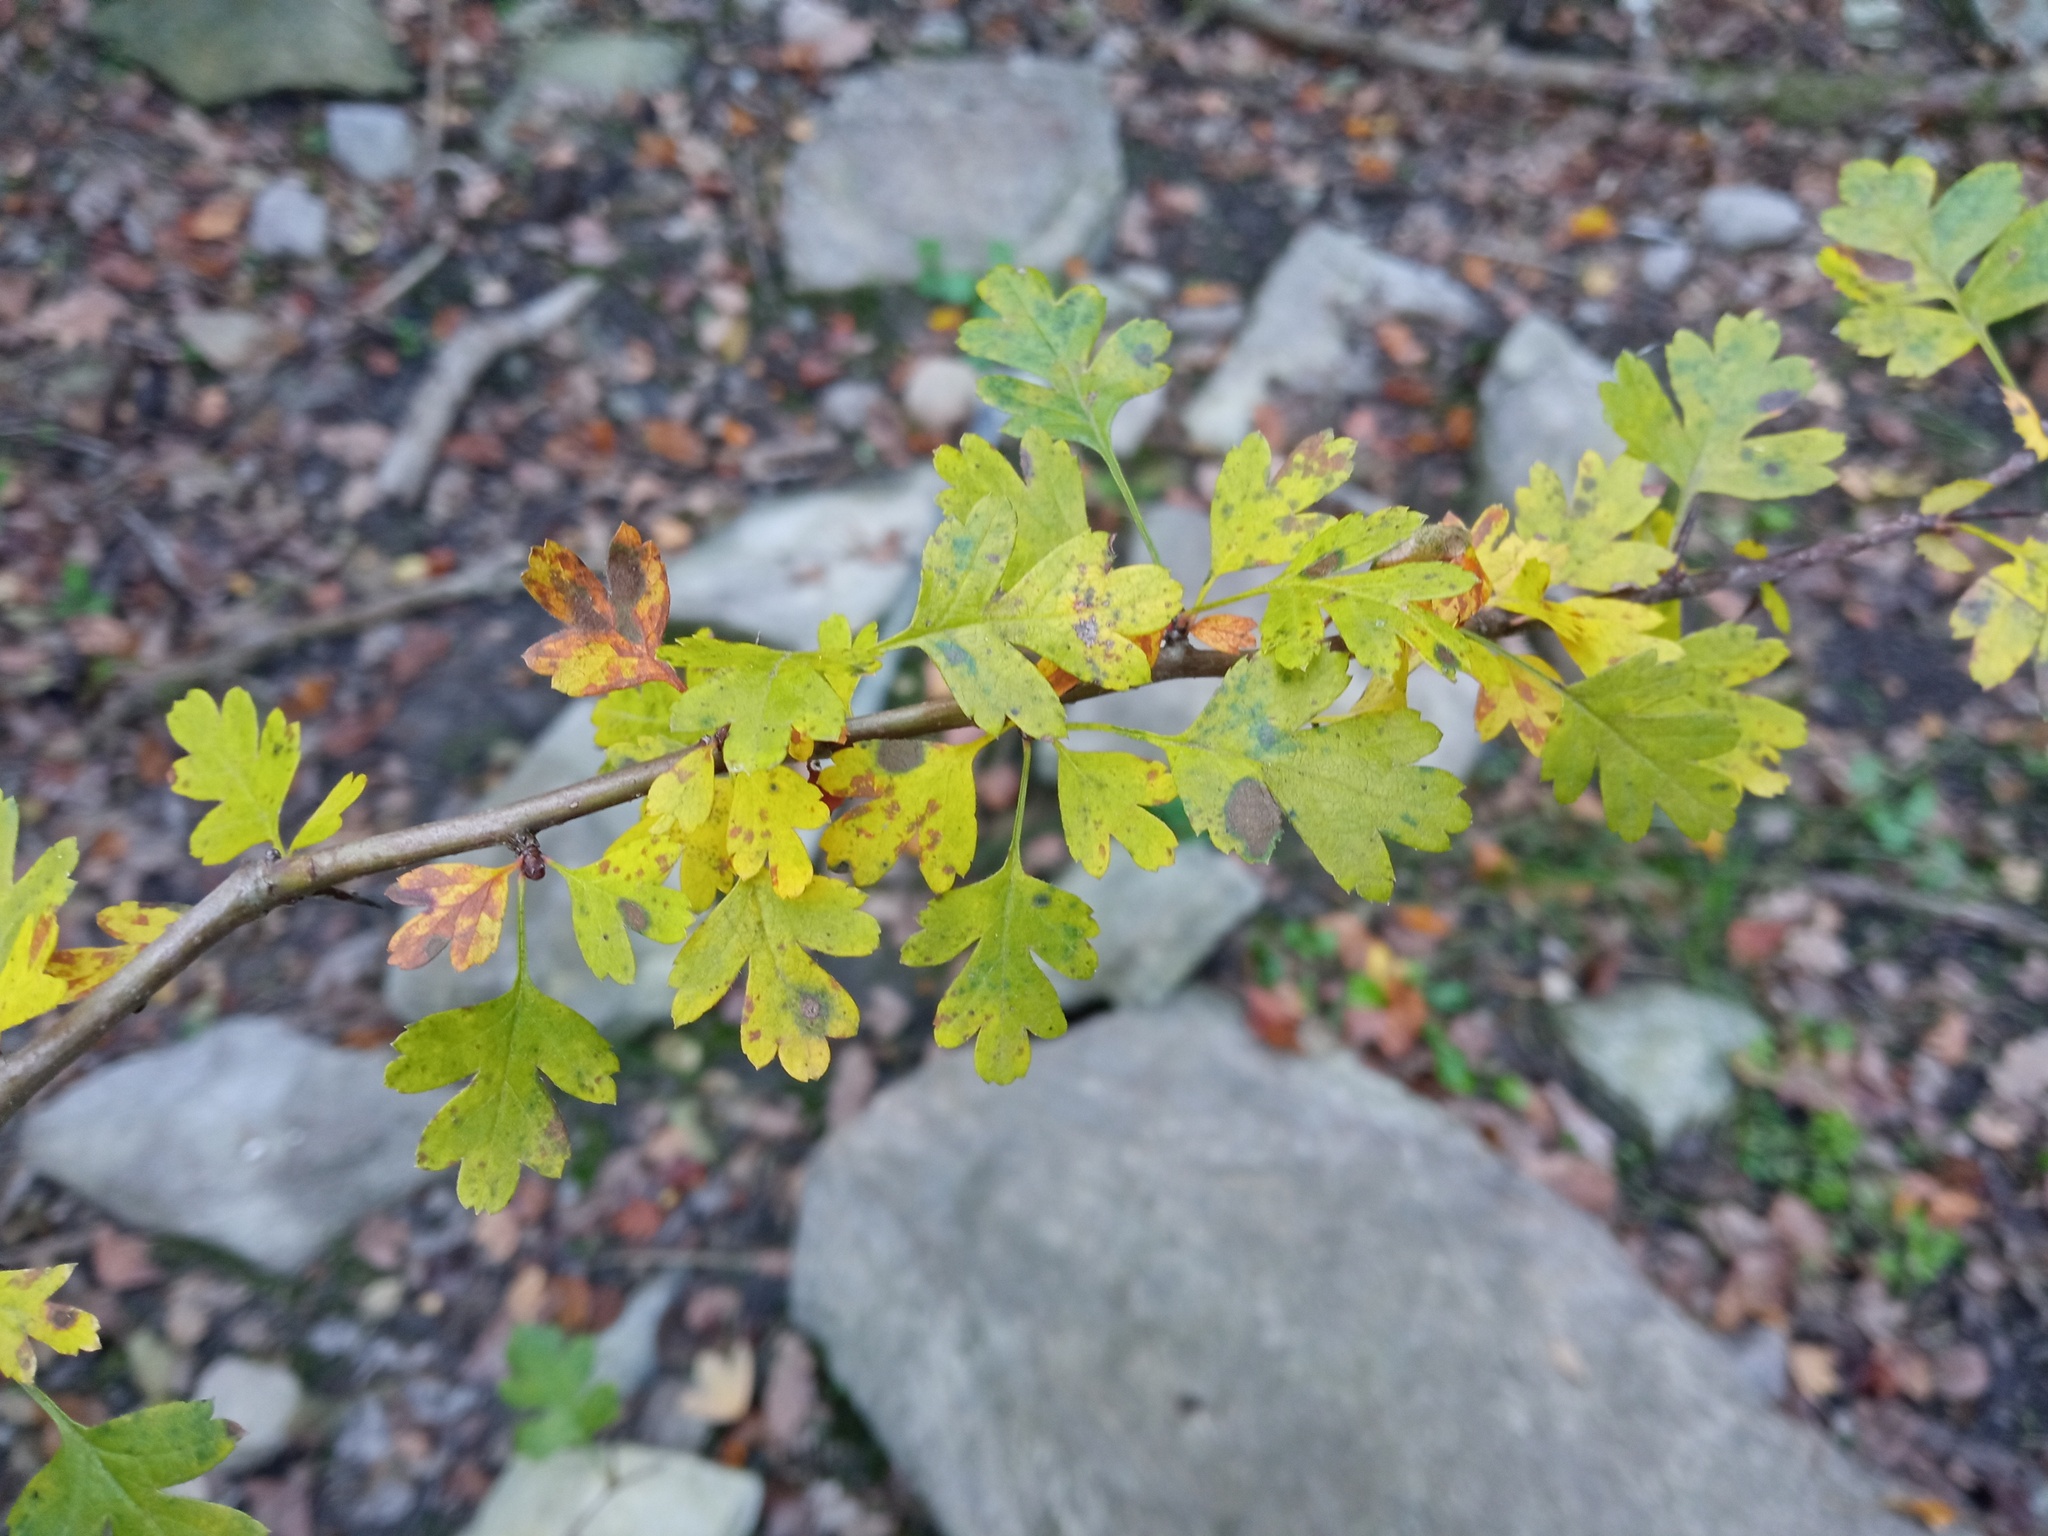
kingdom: Plantae
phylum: Tracheophyta
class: Magnoliopsida
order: Rosales
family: Rosaceae
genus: Crataegus
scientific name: Crataegus monogyna
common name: Hawthorn
